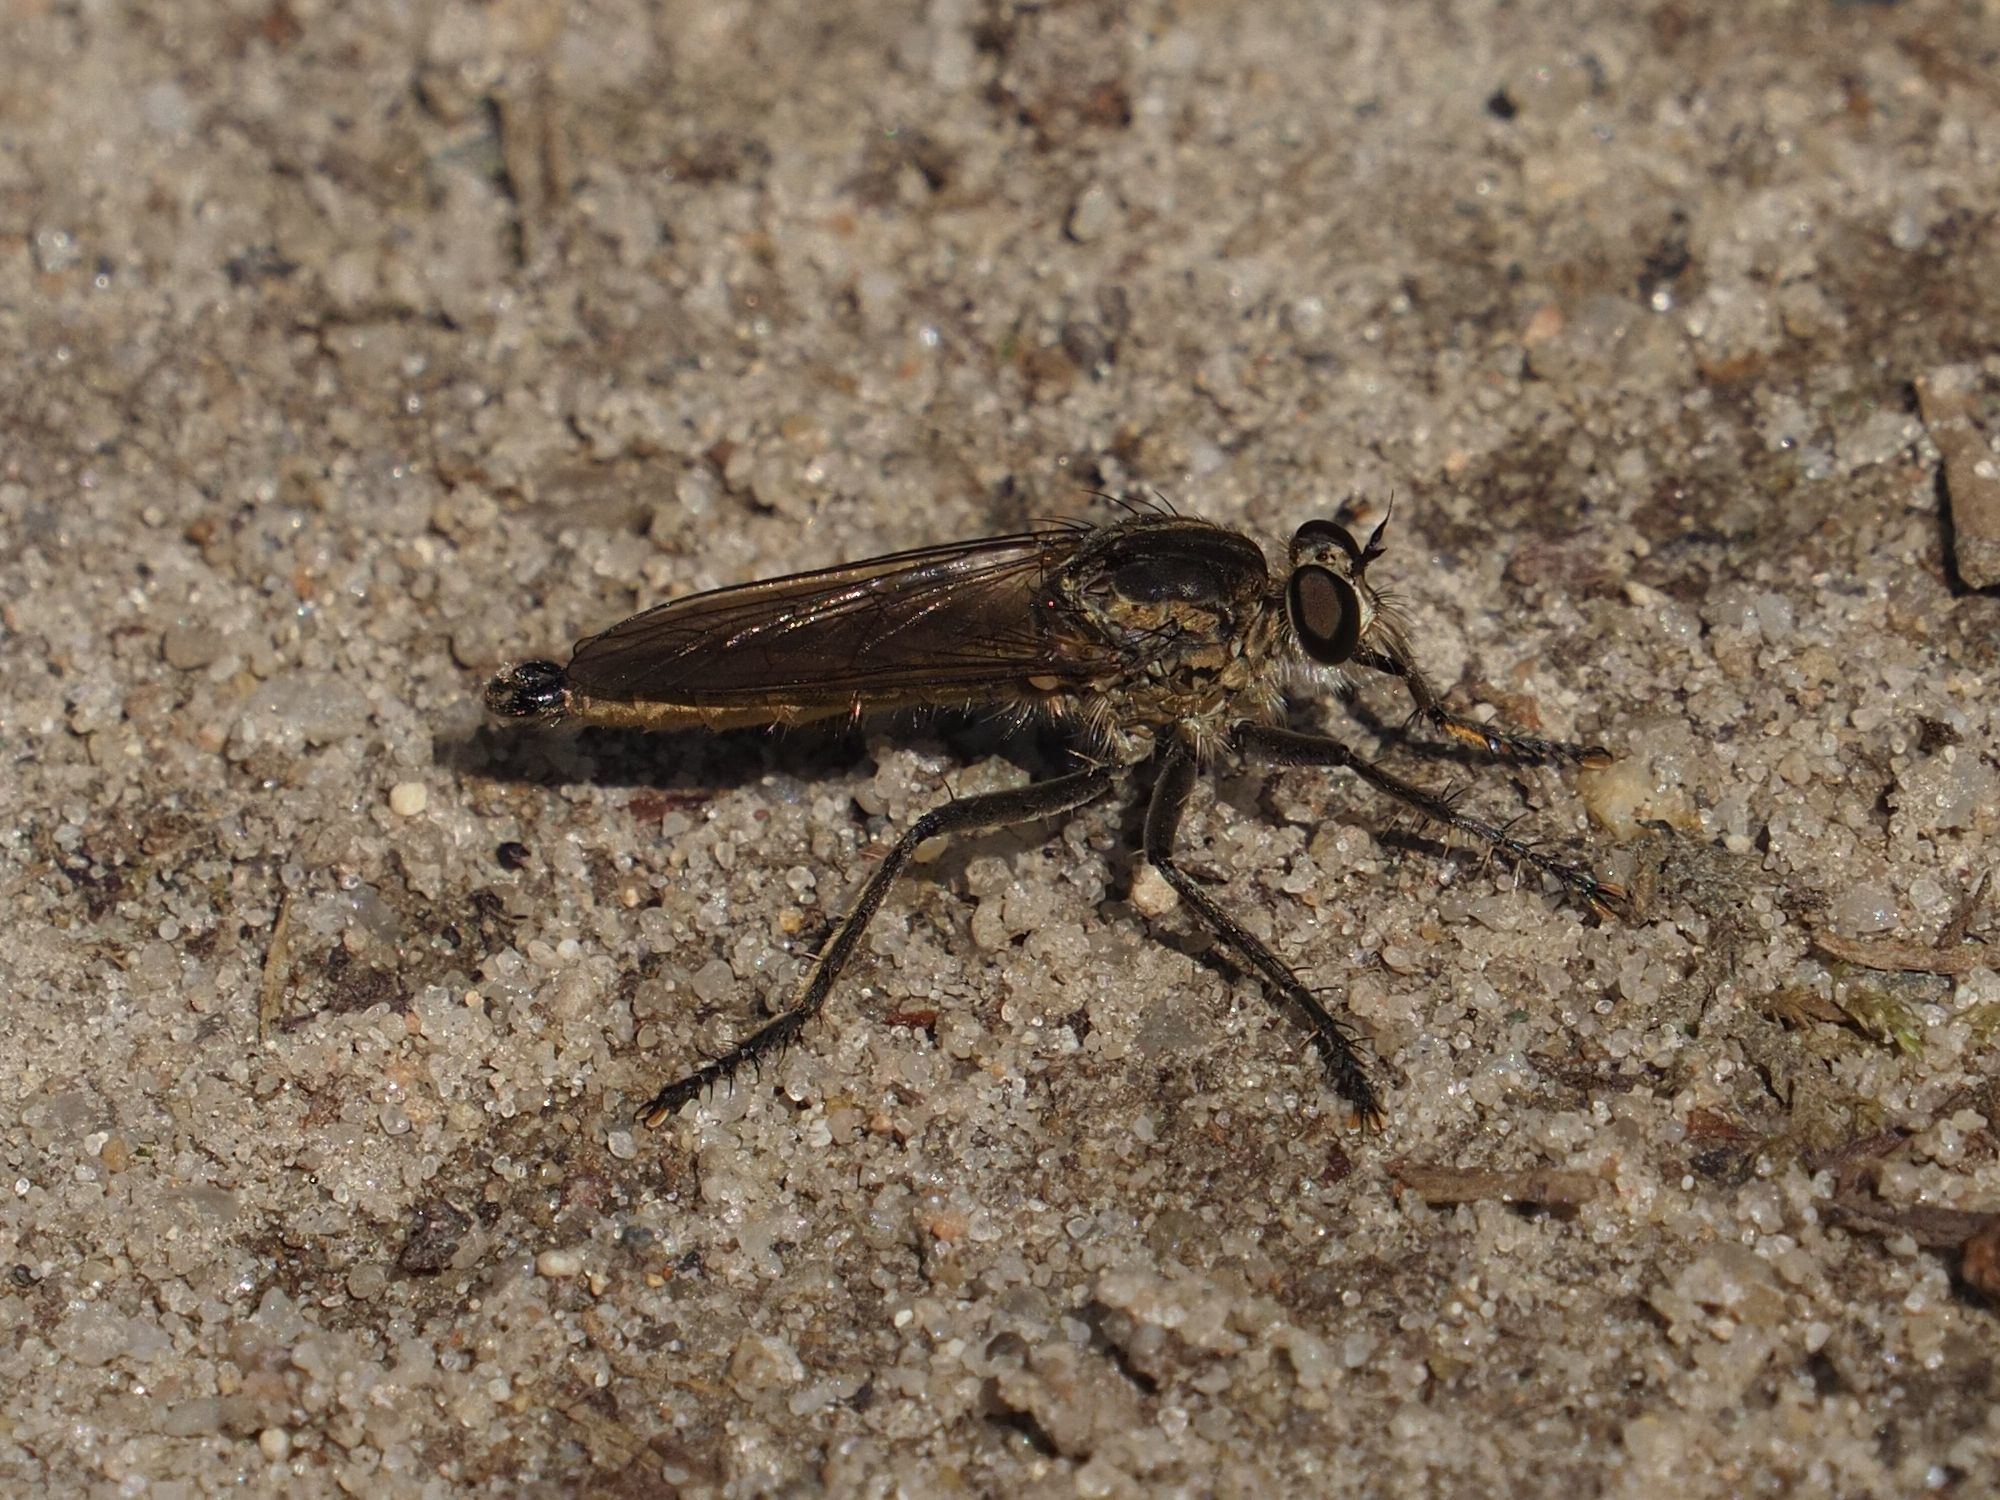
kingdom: Animalia
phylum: Arthropoda
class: Insecta
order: Diptera
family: Asilidae
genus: Philonicus
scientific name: Philonicus albiceps
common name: Dune robberfly
